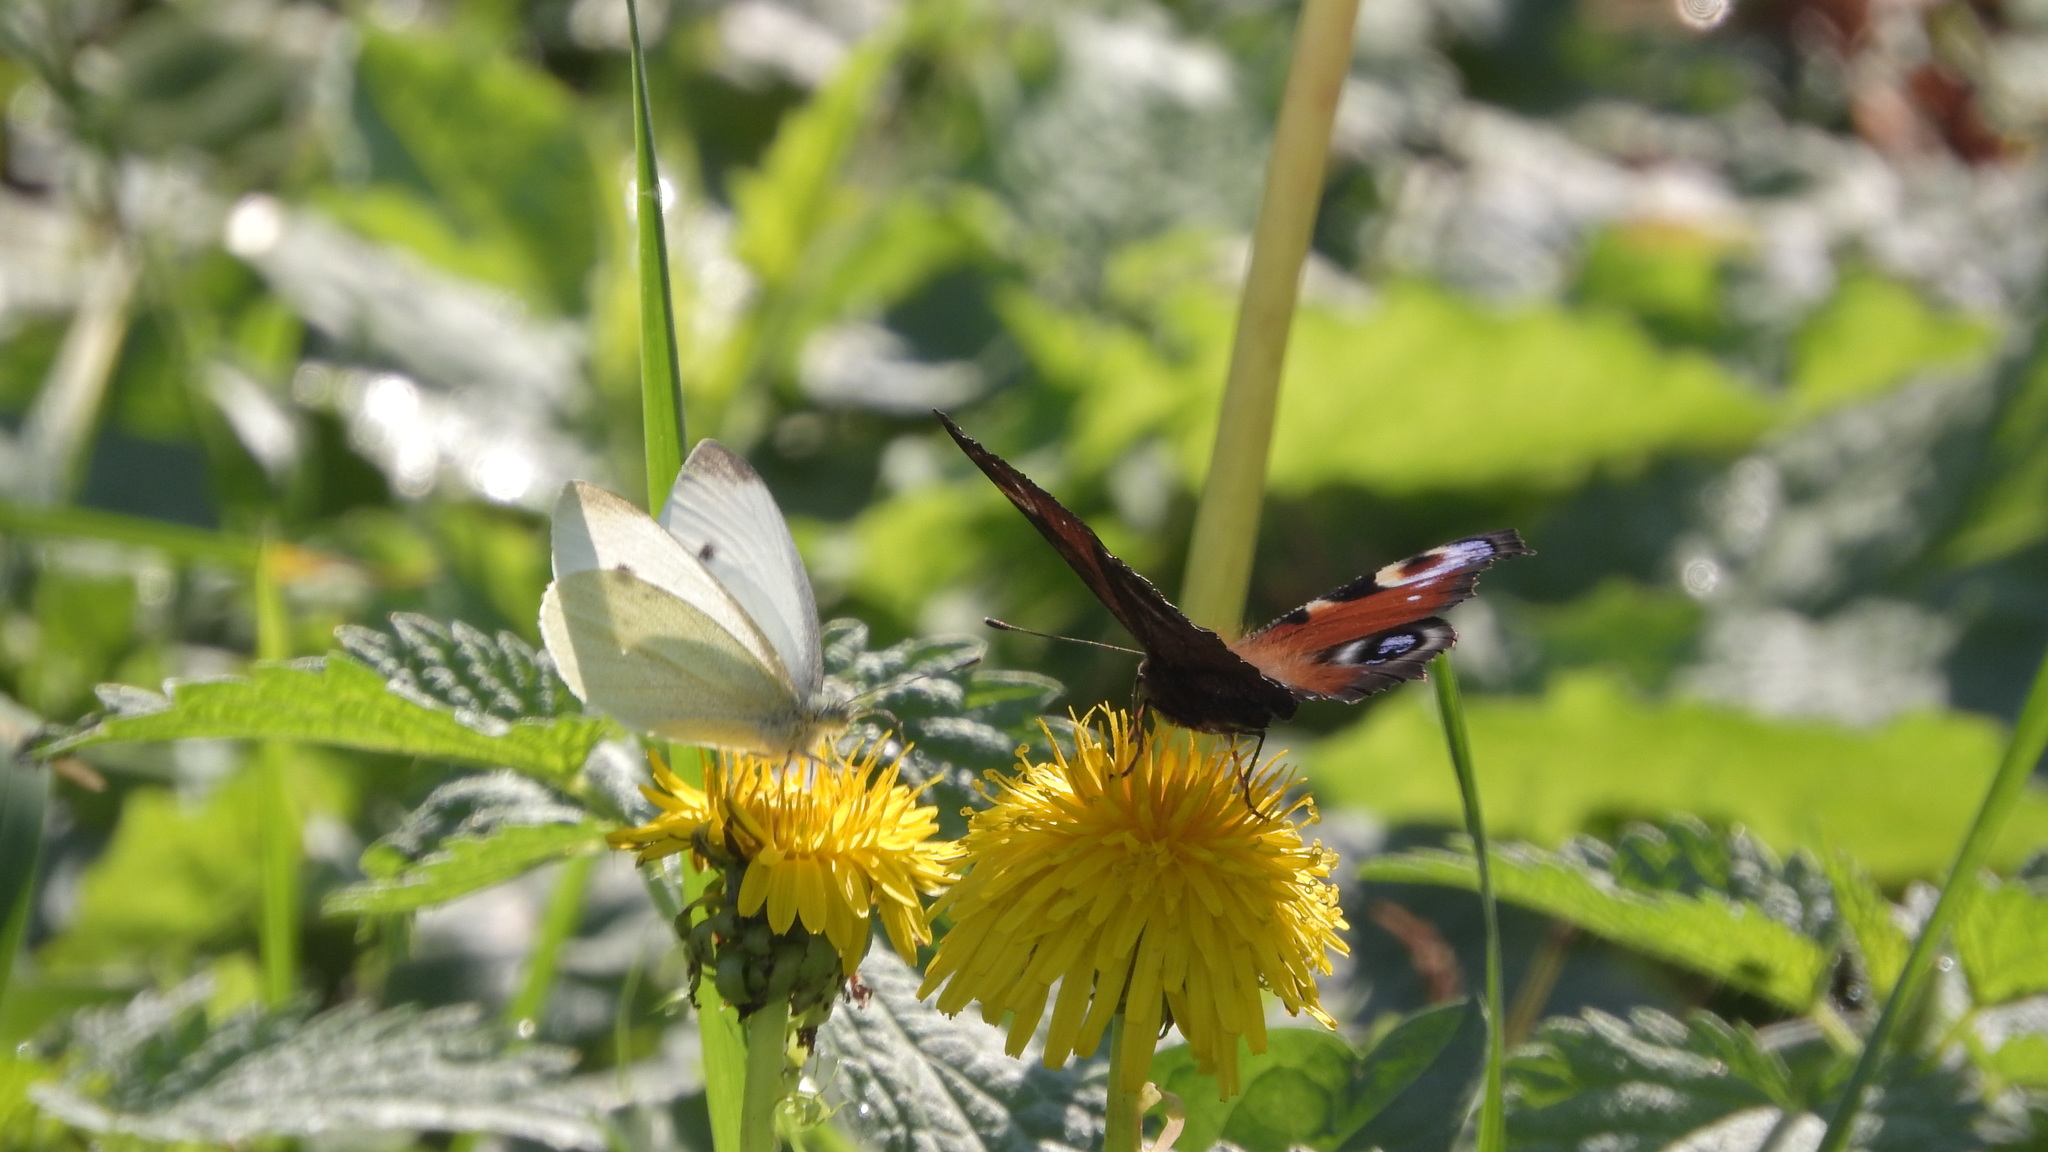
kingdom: Animalia
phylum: Arthropoda
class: Insecta
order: Lepidoptera
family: Pieridae
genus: Pieris
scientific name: Pieris rapae
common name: Small white
